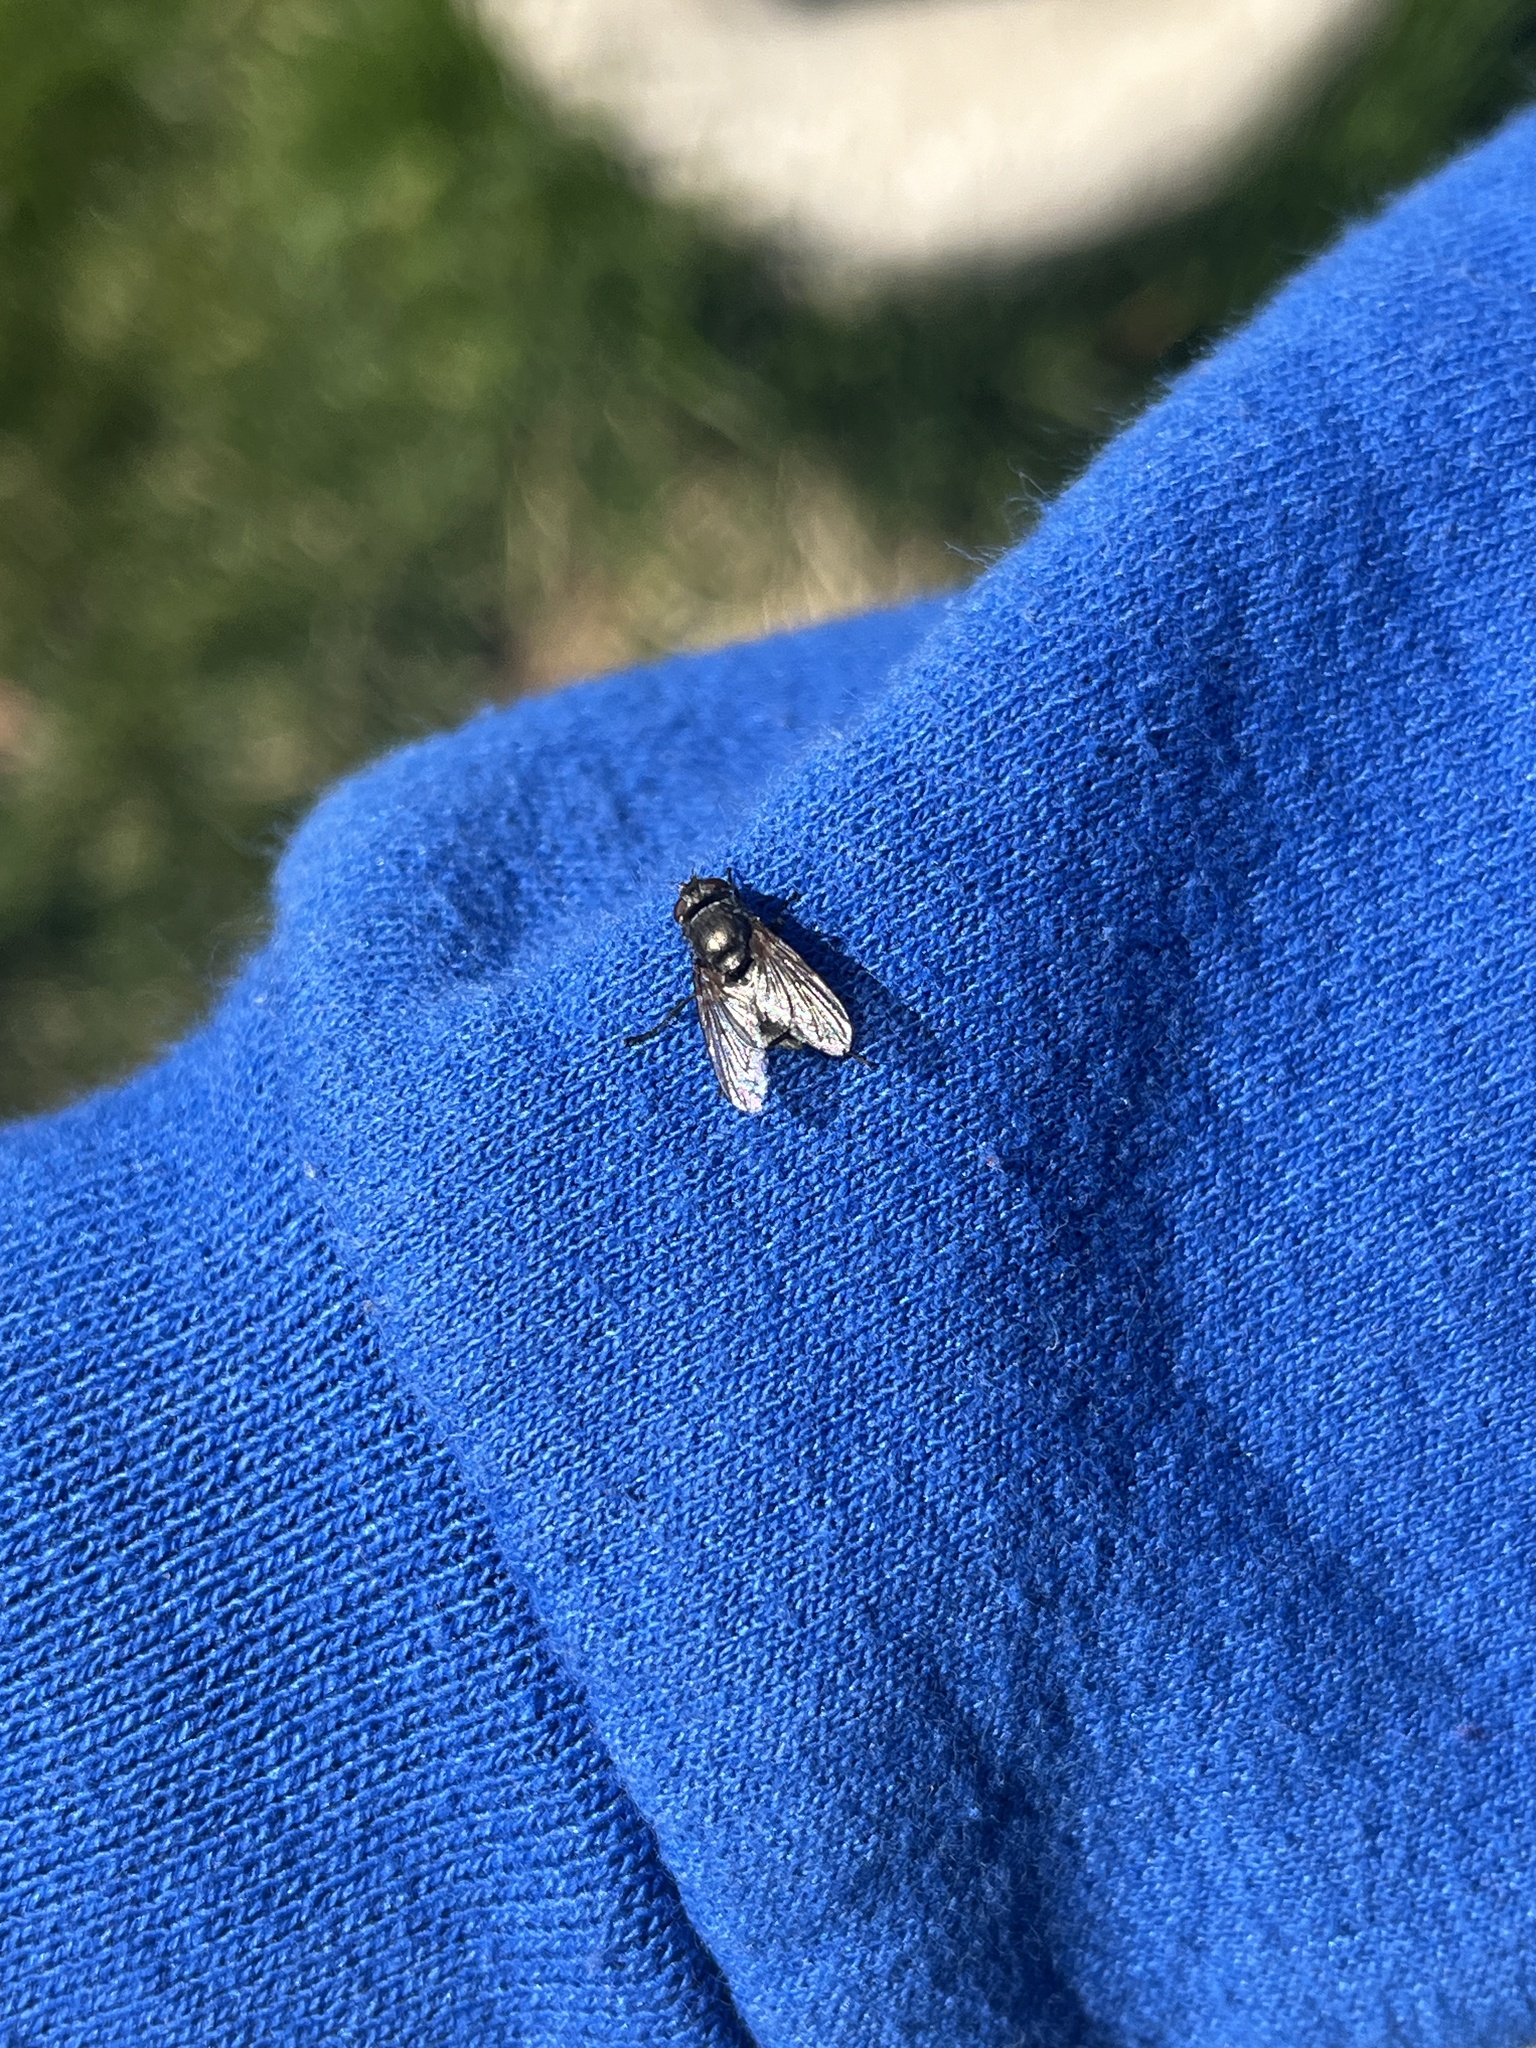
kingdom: Animalia
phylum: Arthropoda
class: Insecta
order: Diptera
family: Calliphoridae
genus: Phormia
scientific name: Phormia regina
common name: Black blow fly
